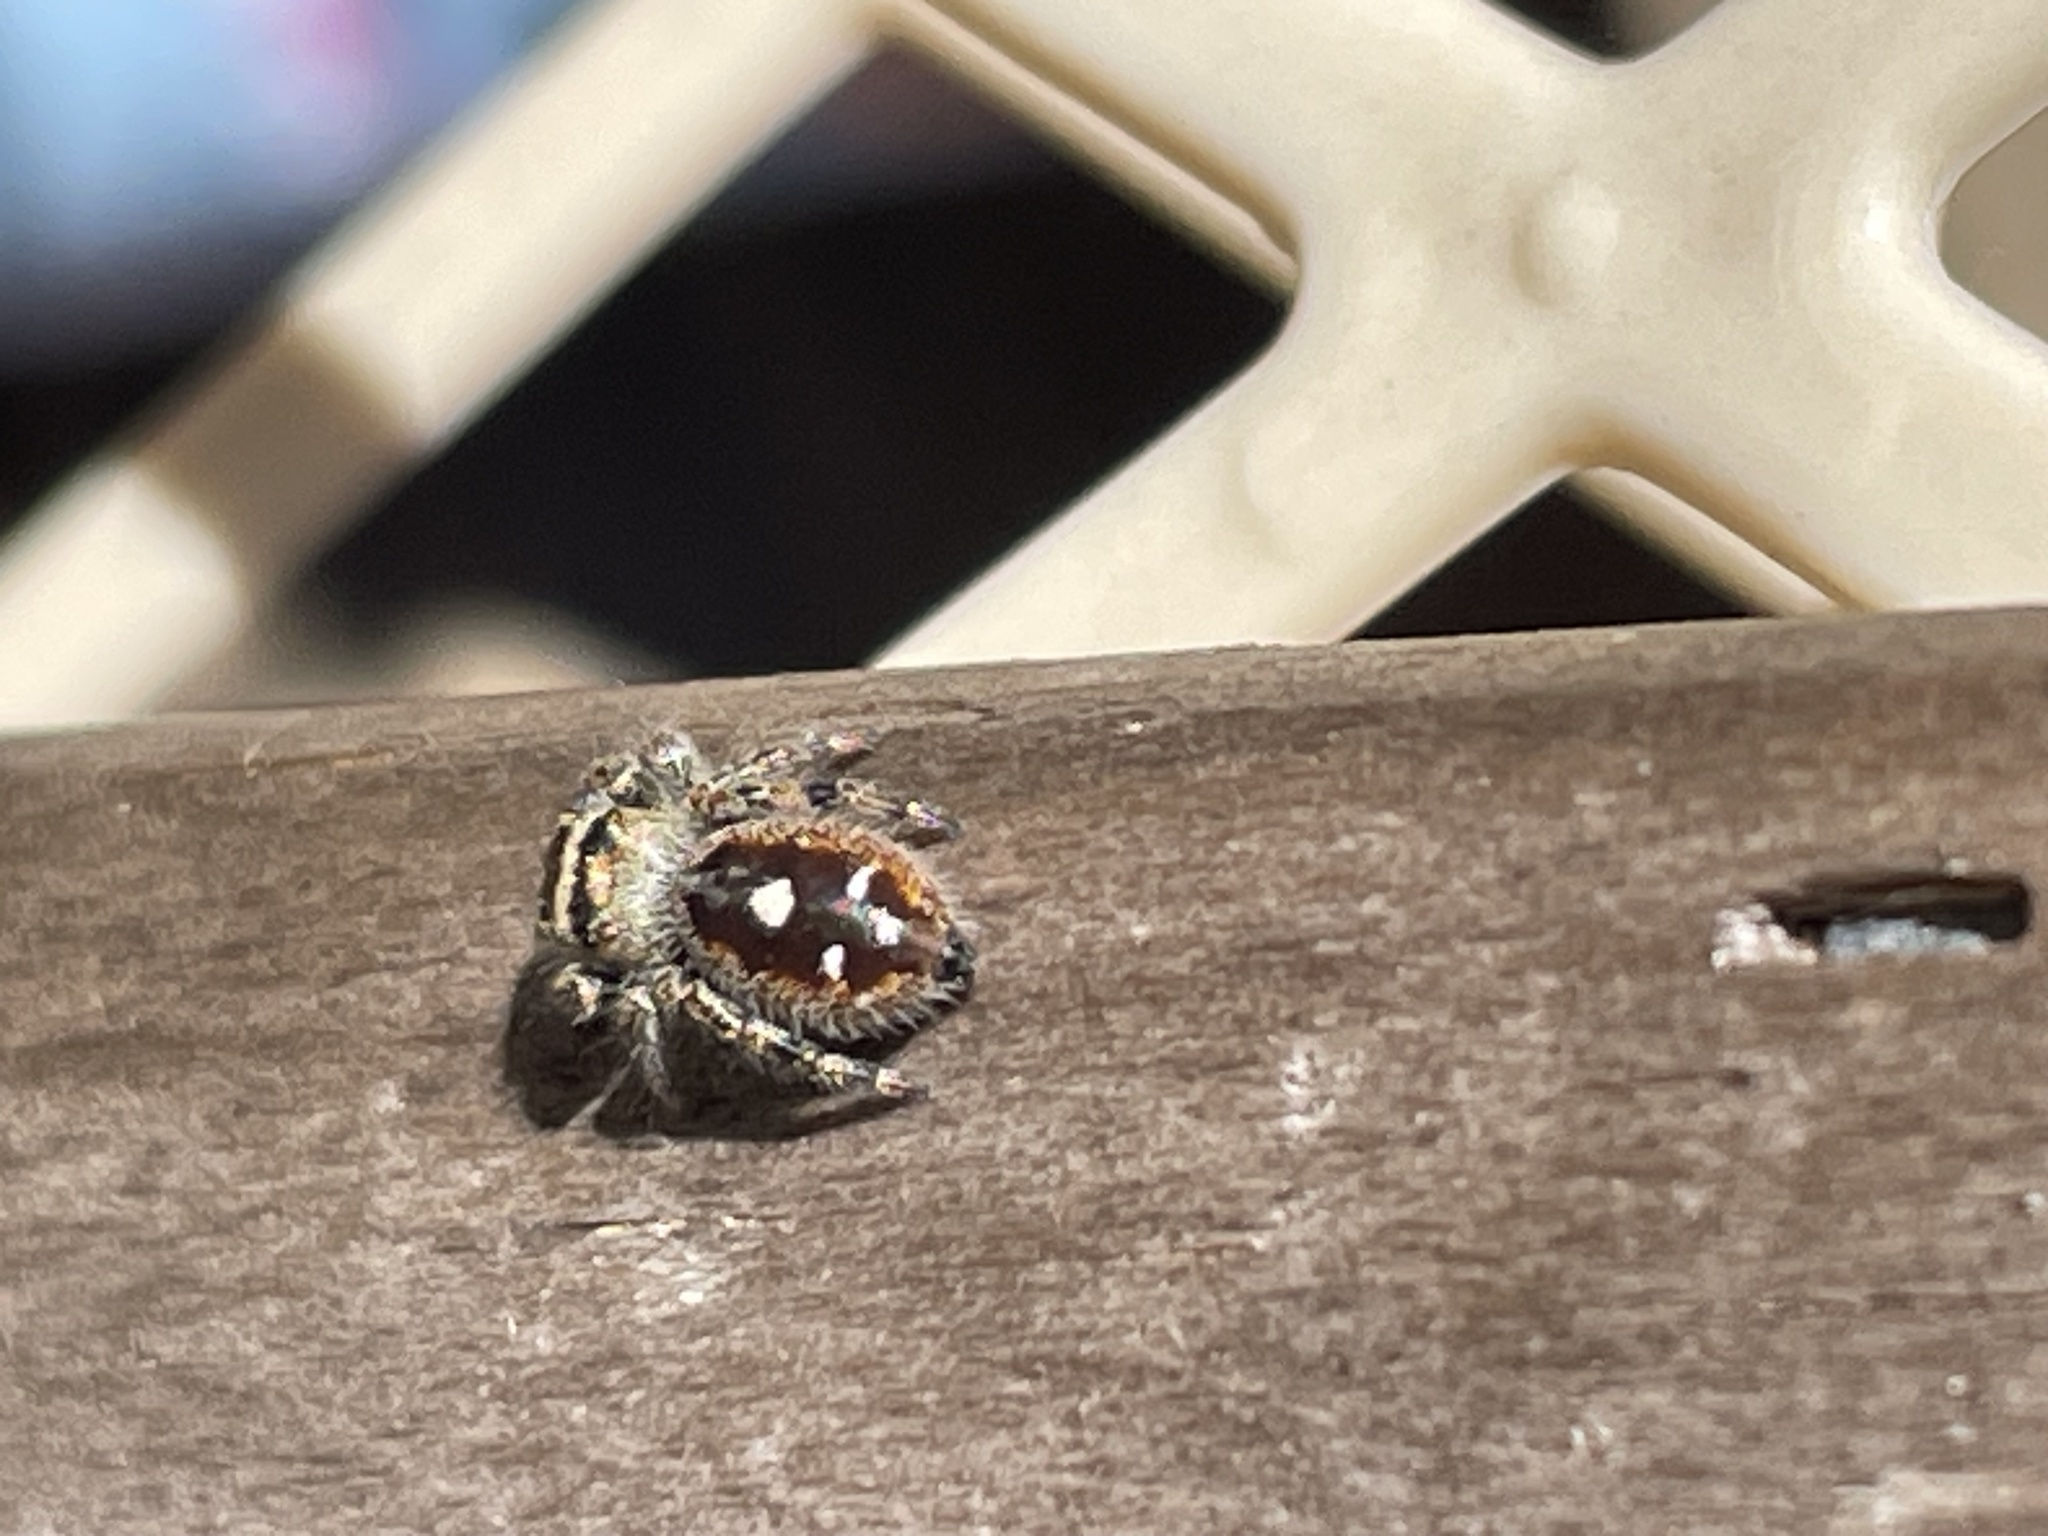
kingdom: Animalia
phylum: Arthropoda
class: Arachnida
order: Araneae
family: Salticidae
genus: Phidippus
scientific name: Phidippus audax
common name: Bold jumper
